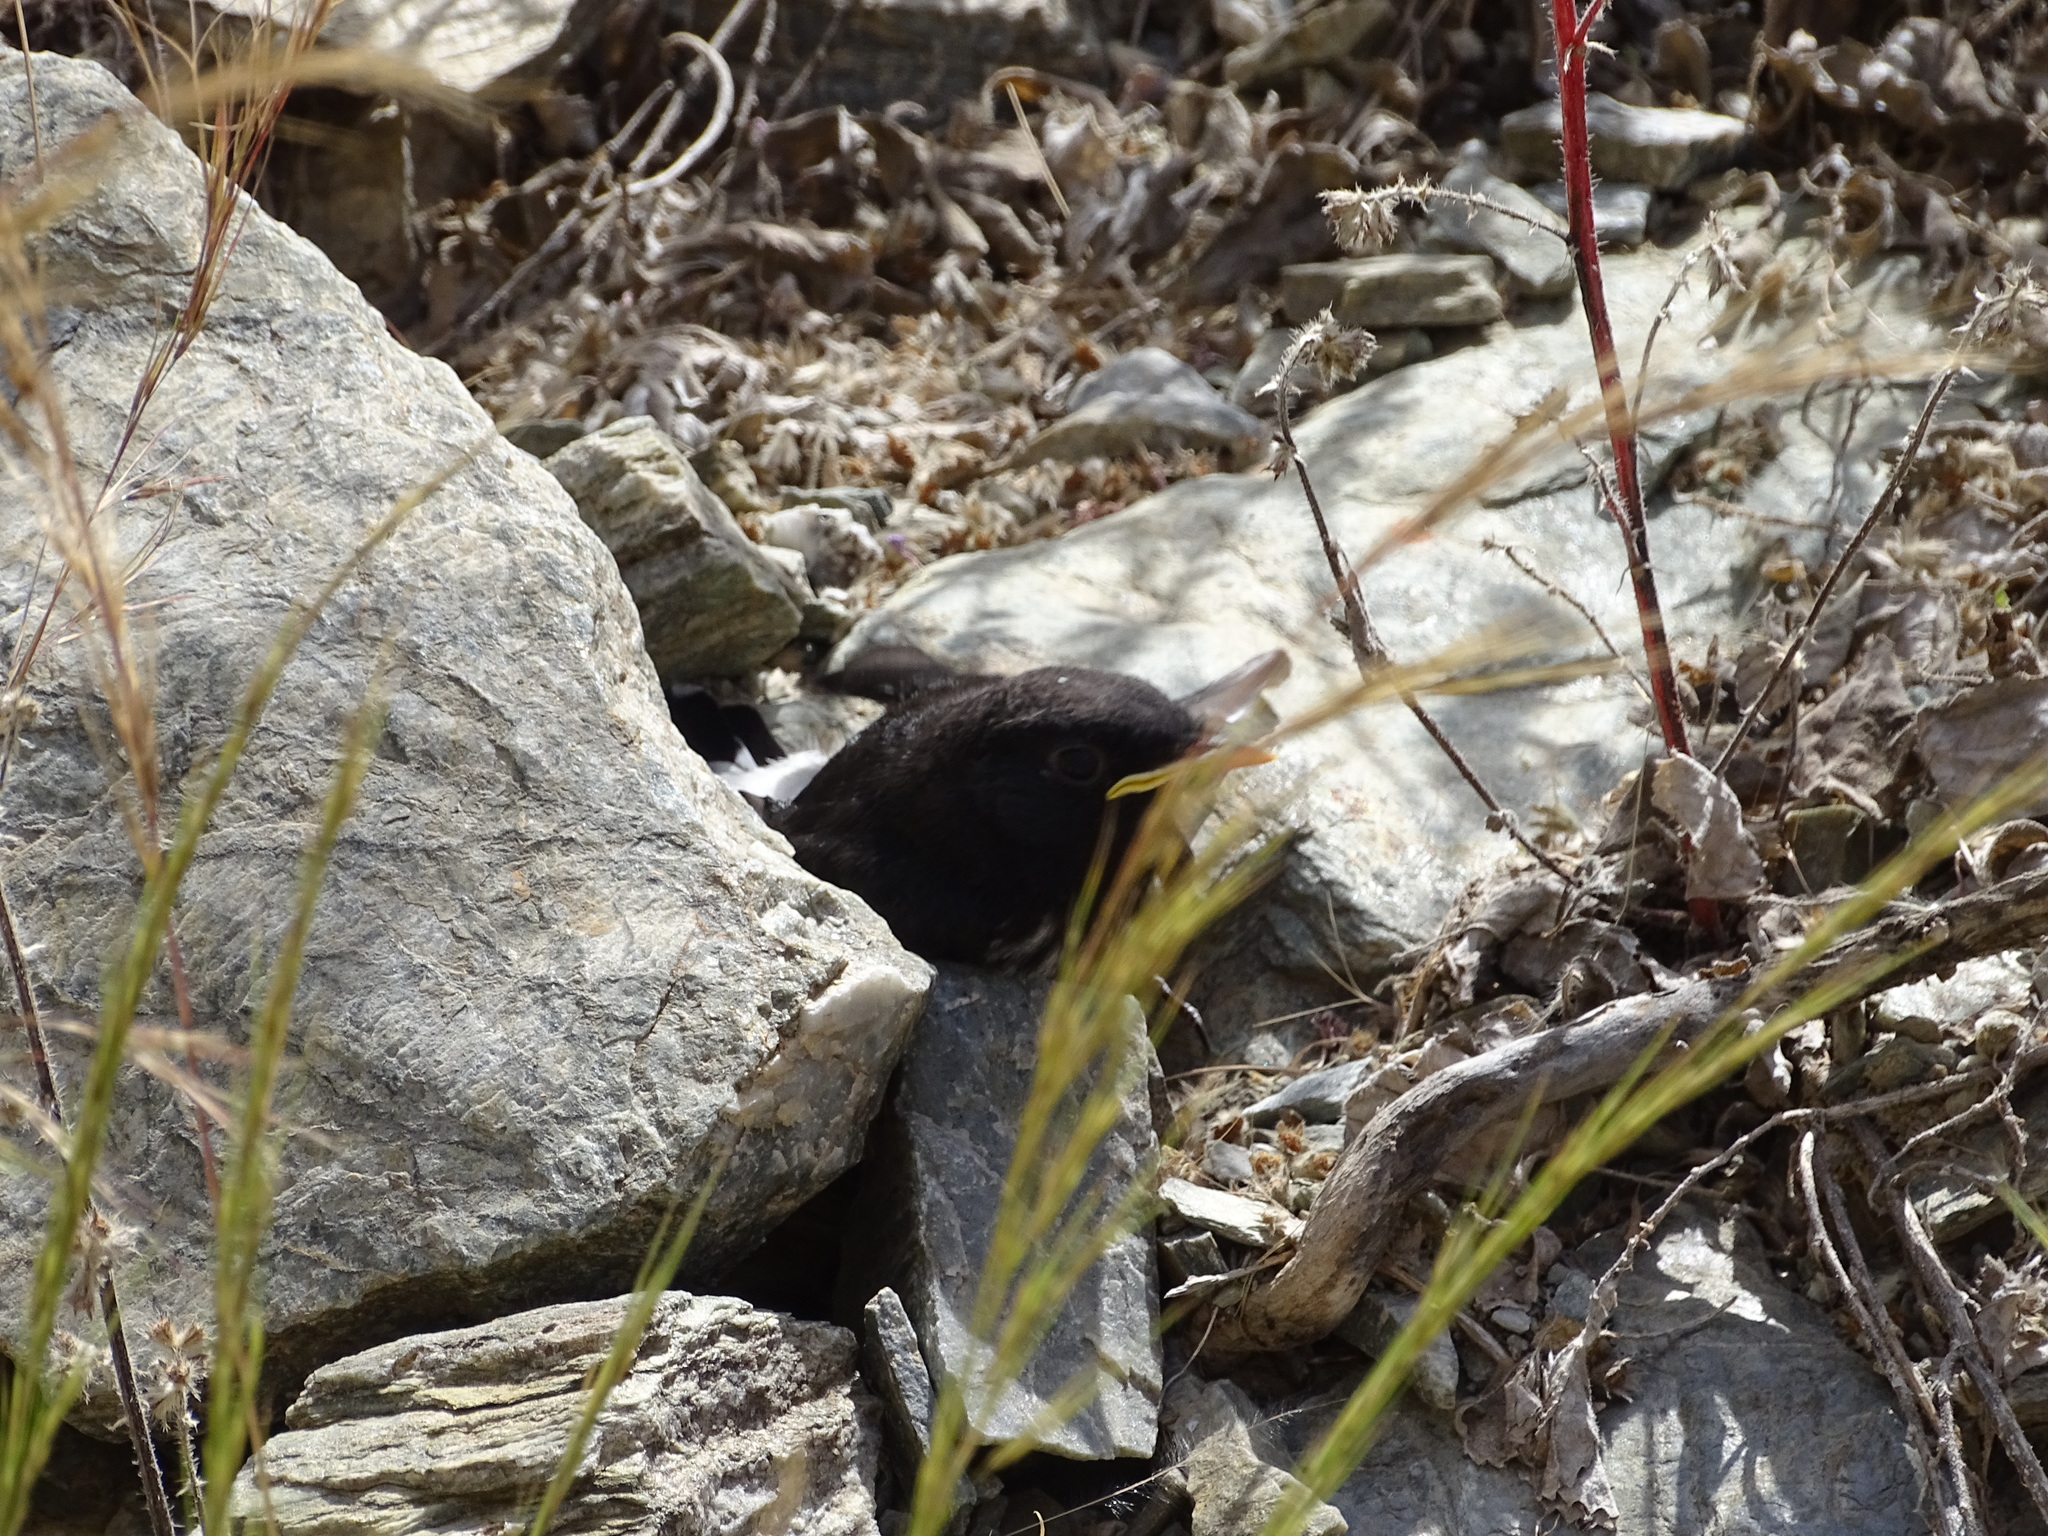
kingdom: Animalia
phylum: Chordata
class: Aves
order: Passeriformes
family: Muscicapidae
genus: Oenanthe
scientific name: Oenanthe albonigra
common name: Hume's wheatear
